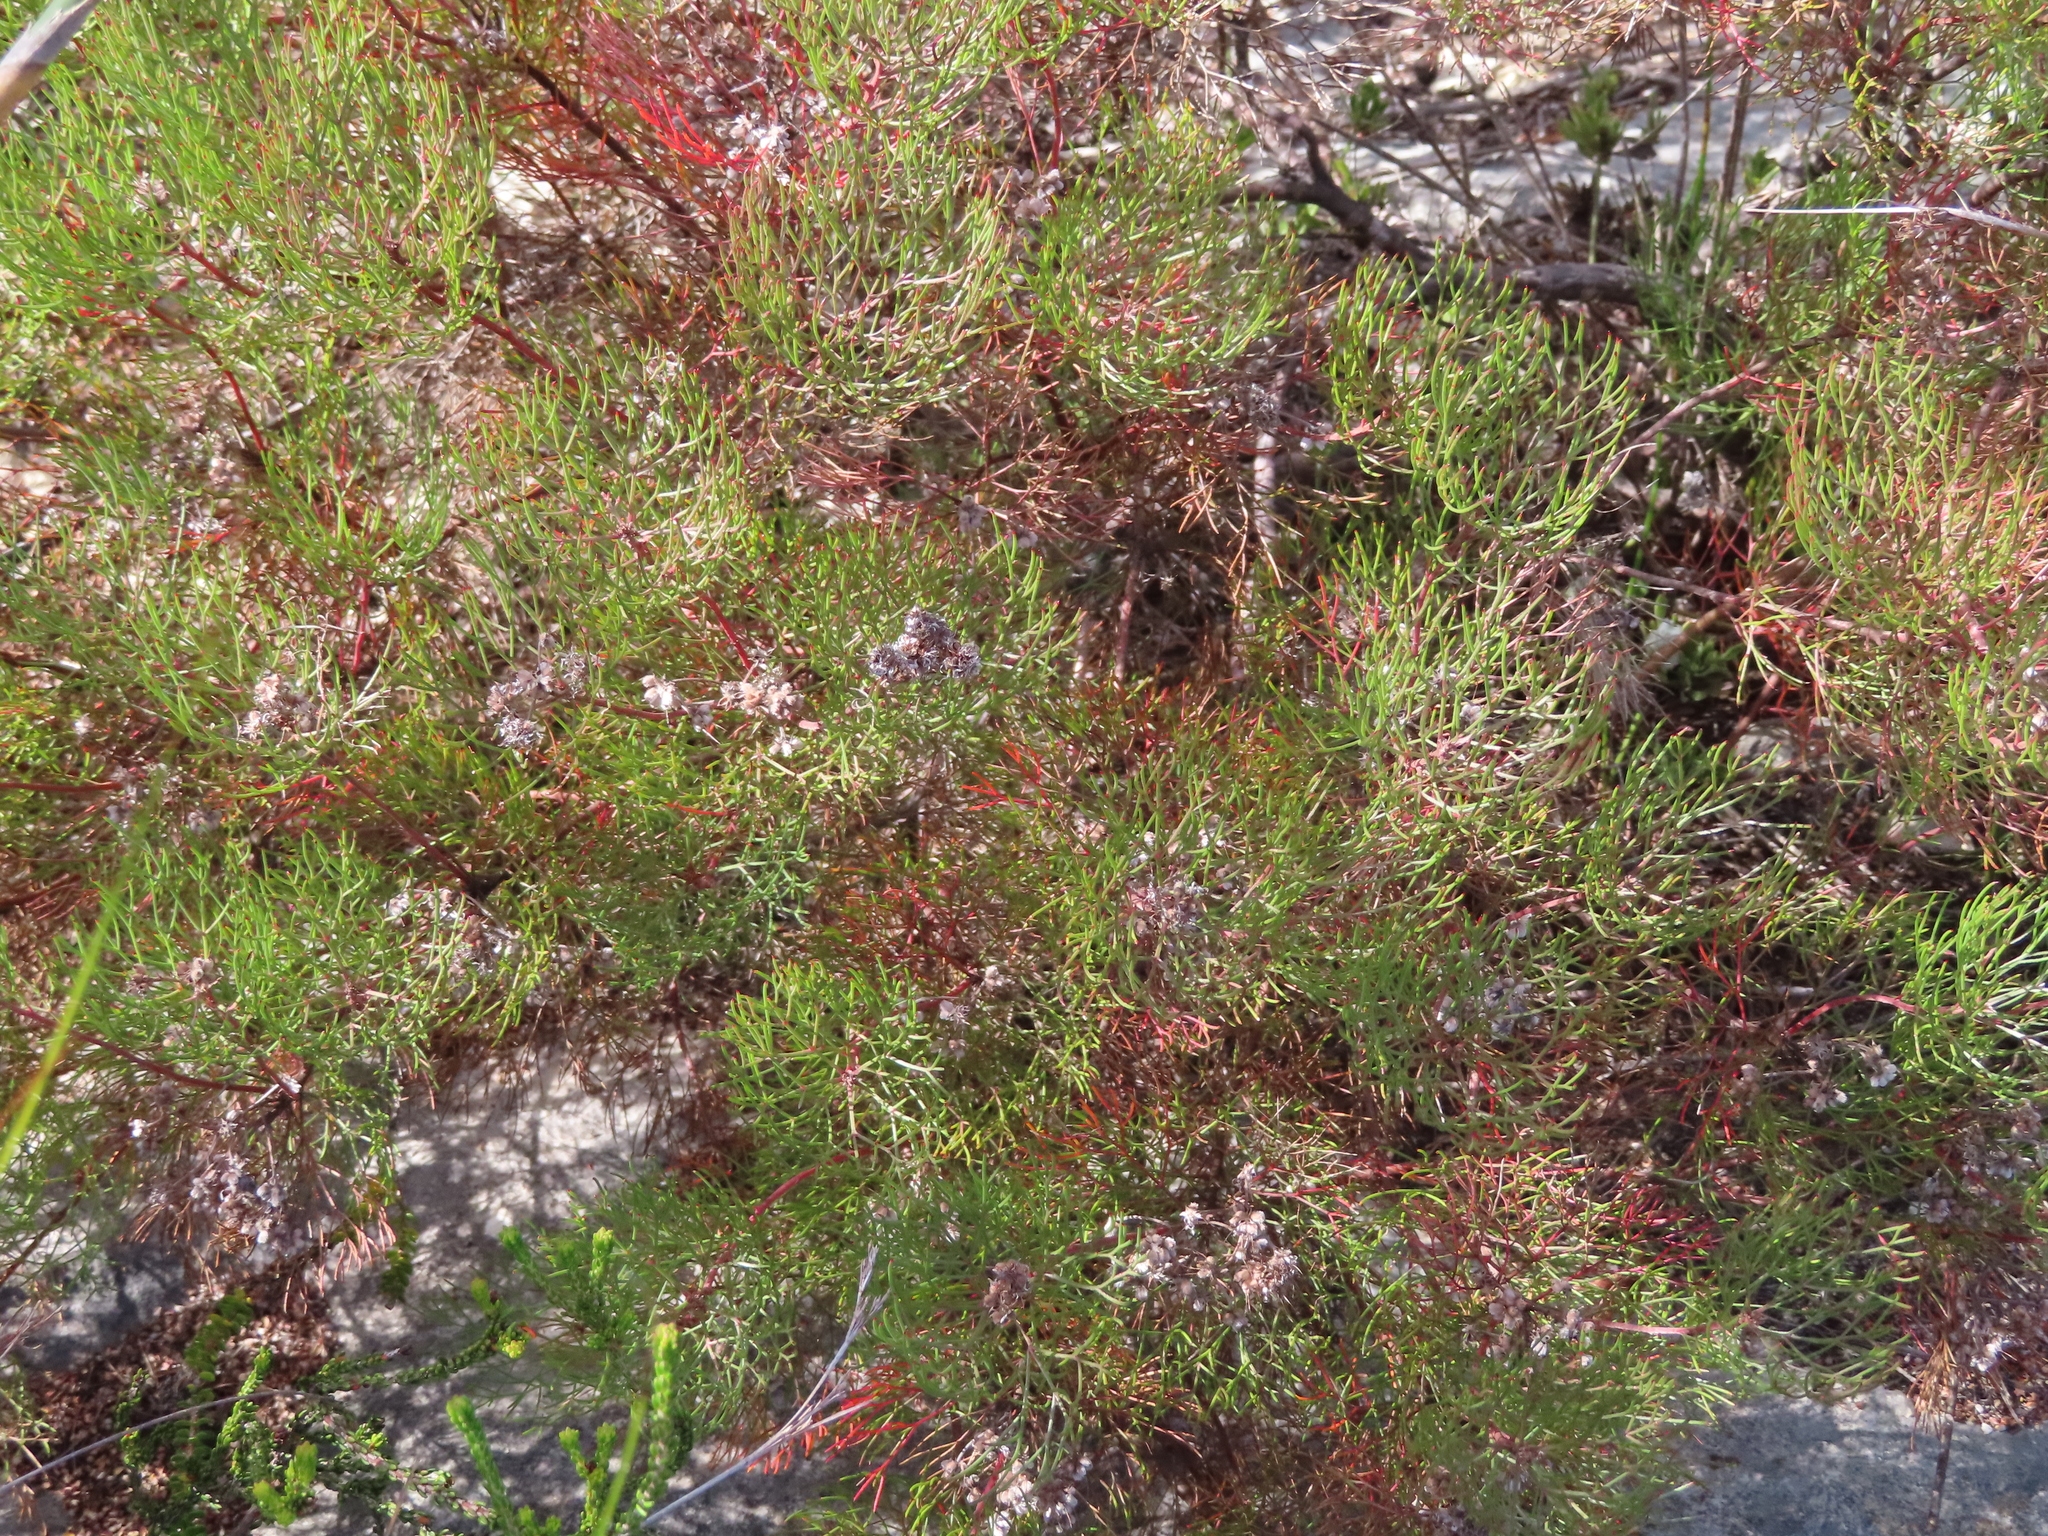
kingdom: Plantae
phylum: Tracheophyta
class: Magnoliopsida
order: Proteales
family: Proteaceae
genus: Serruria
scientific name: Serruria fasciflora
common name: Common pin spiderhead
